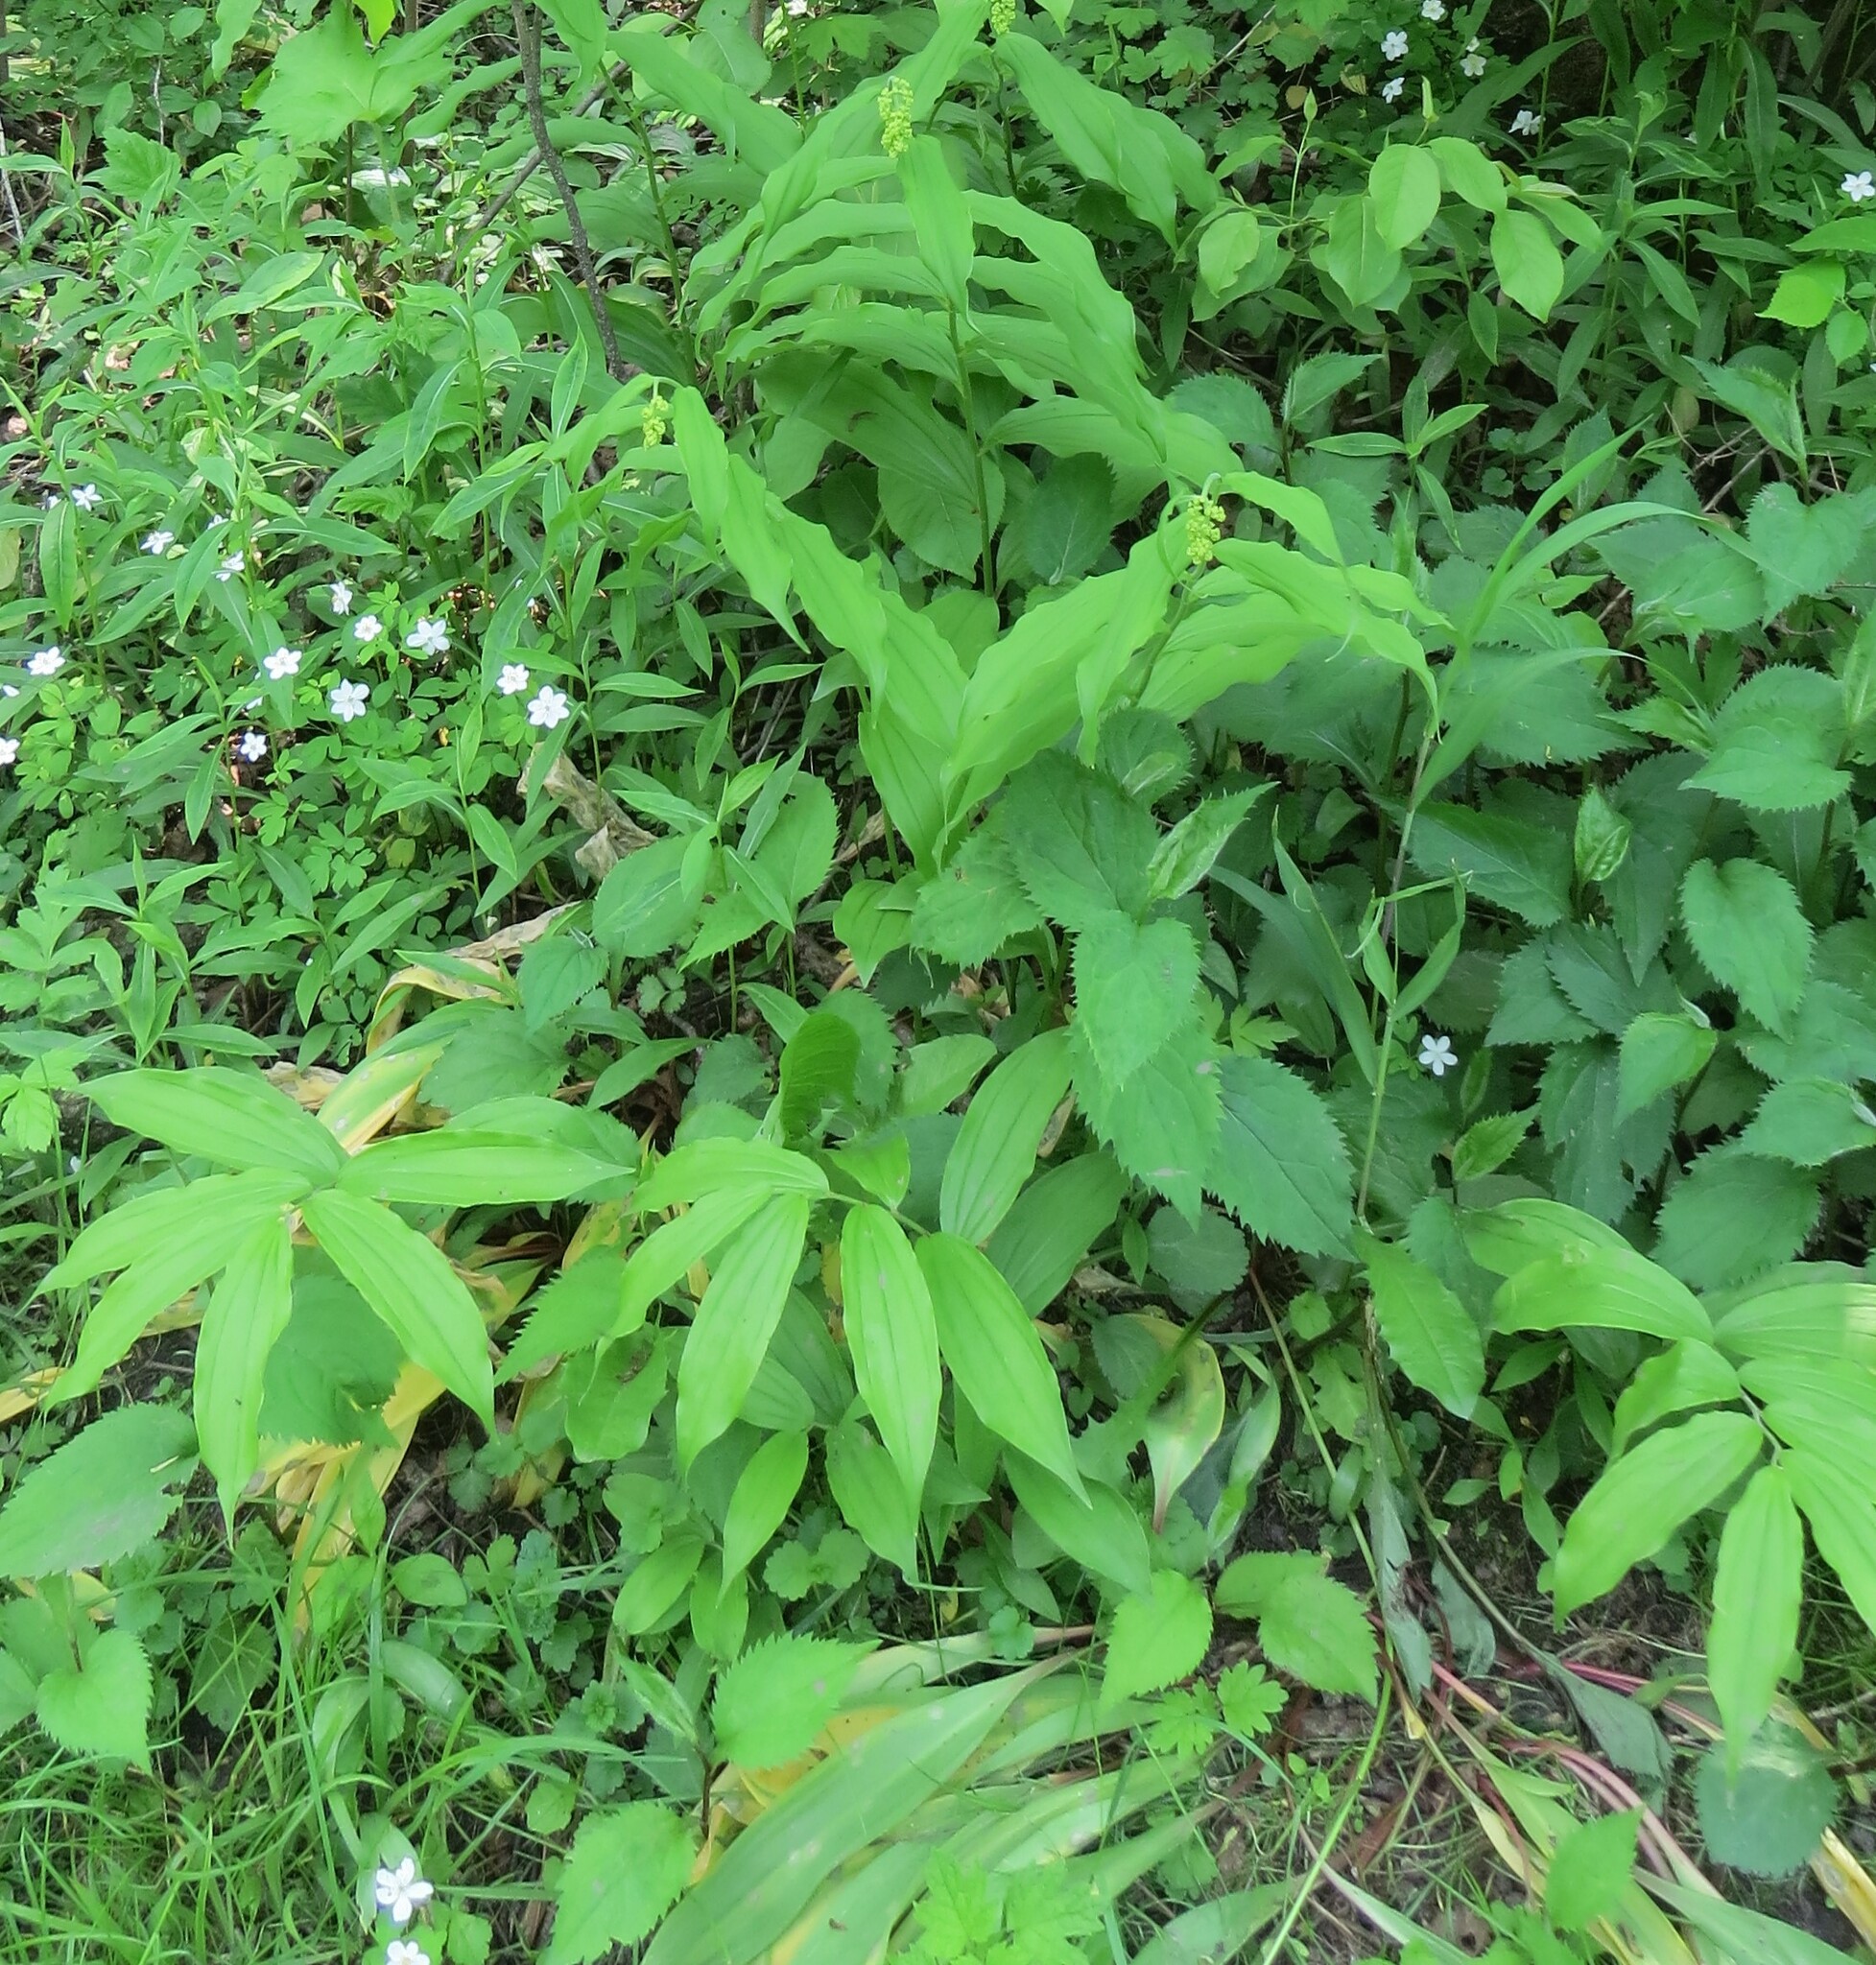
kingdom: Plantae
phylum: Tracheophyta
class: Liliopsida
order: Asparagales
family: Asparagaceae
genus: Maianthemum
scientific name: Maianthemum racemosum
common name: False spikenard
